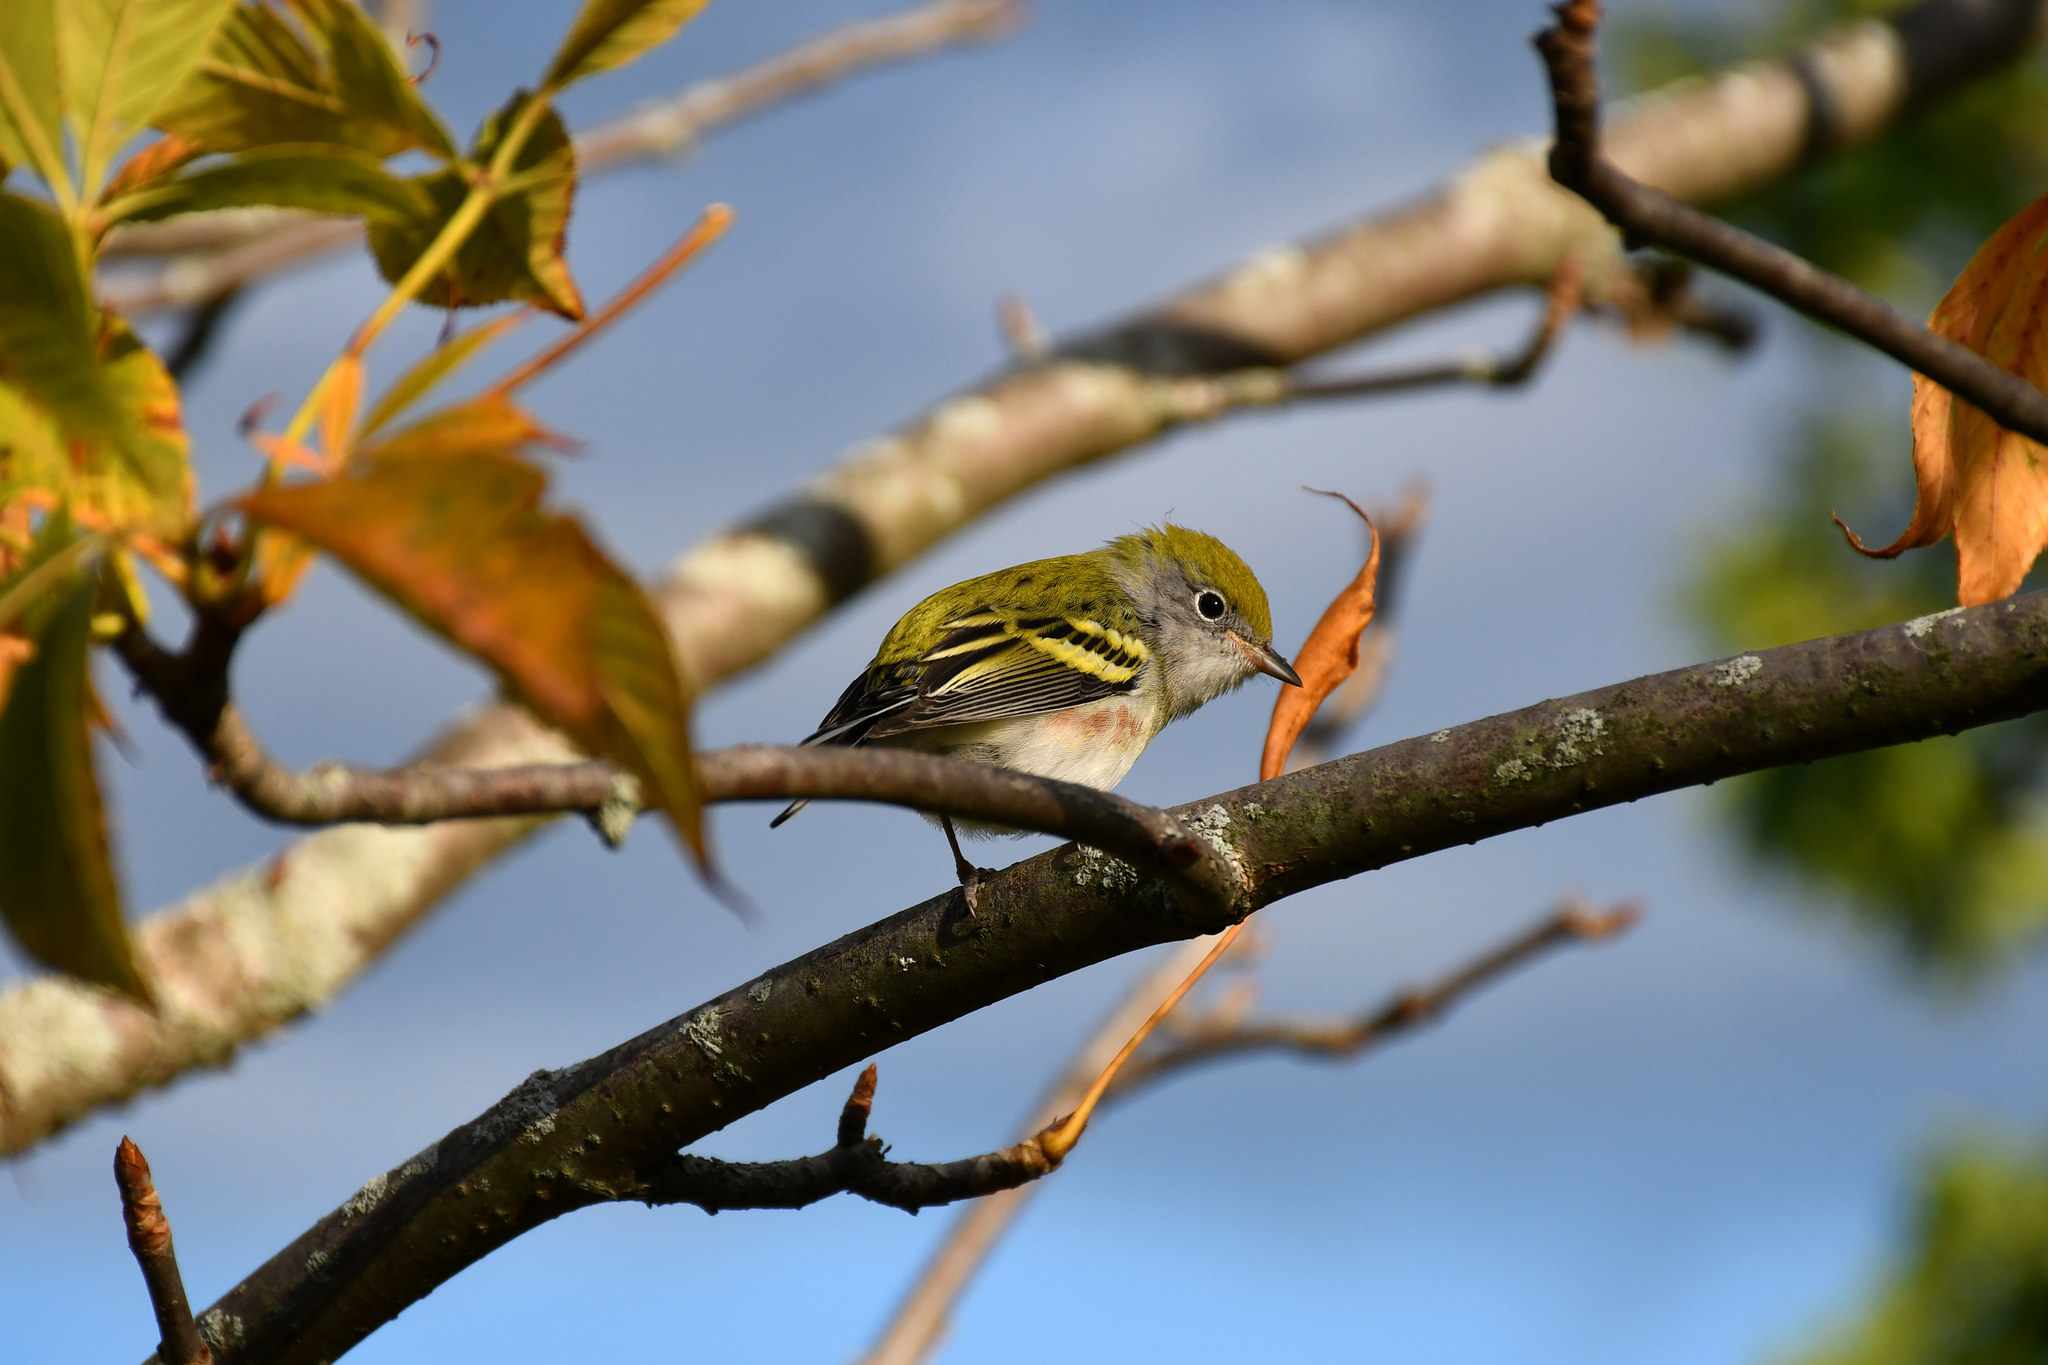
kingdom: Animalia
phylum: Chordata
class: Aves
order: Passeriformes
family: Parulidae
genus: Setophaga
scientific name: Setophaga pensylvanica
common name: Chestnut-sided warbler
